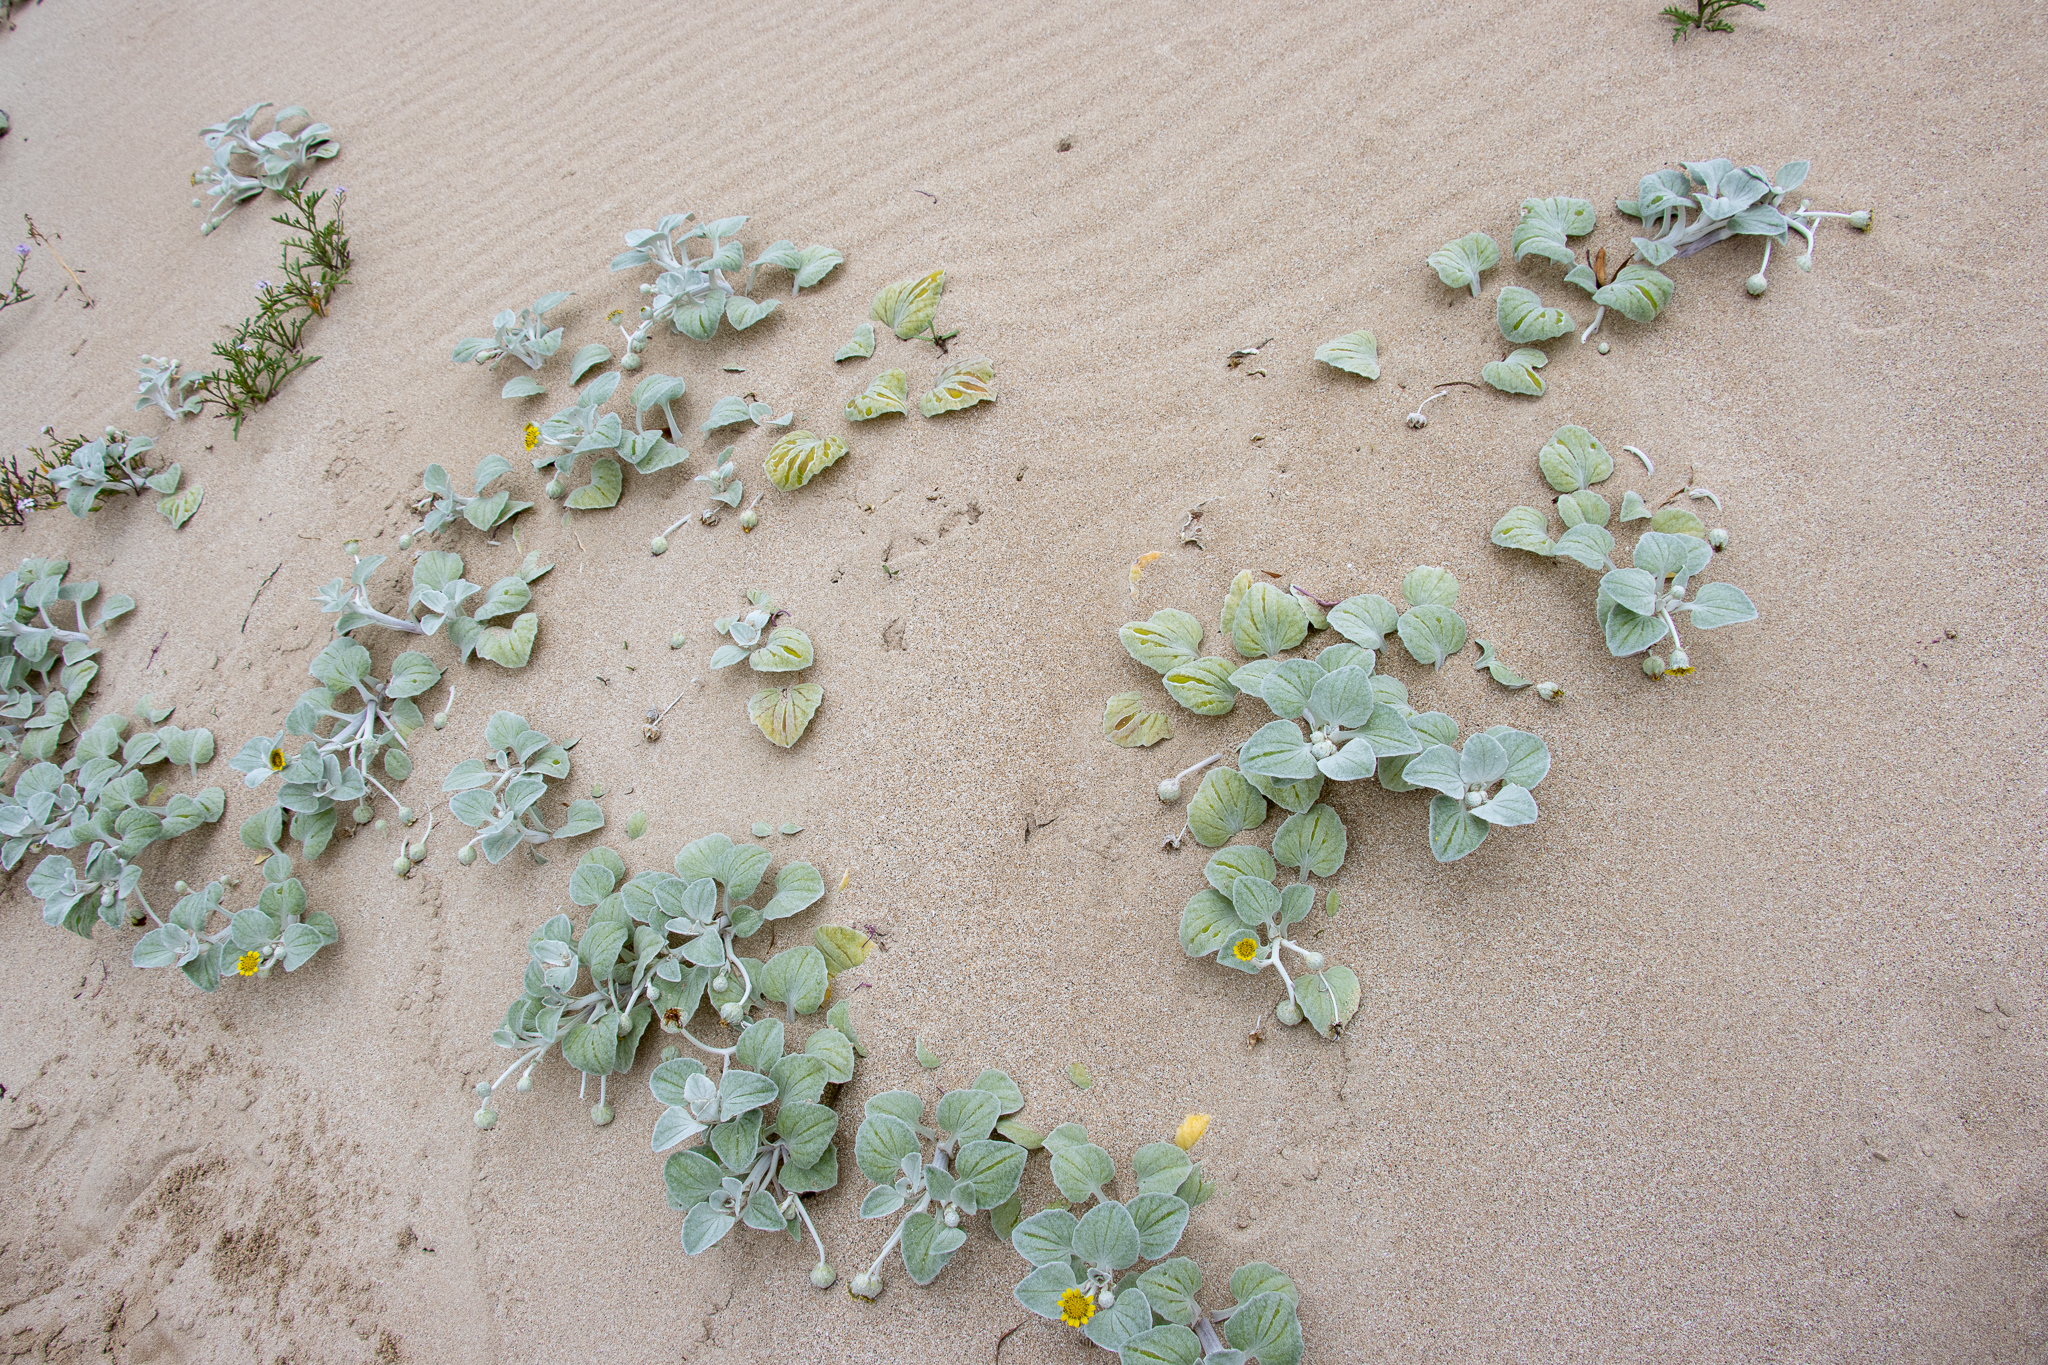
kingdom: Plantae
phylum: Tracheophyta
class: Magnoliopsida
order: Asterales
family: Asteraceae
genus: Arctotheca
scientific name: Arctotheca populifolia
